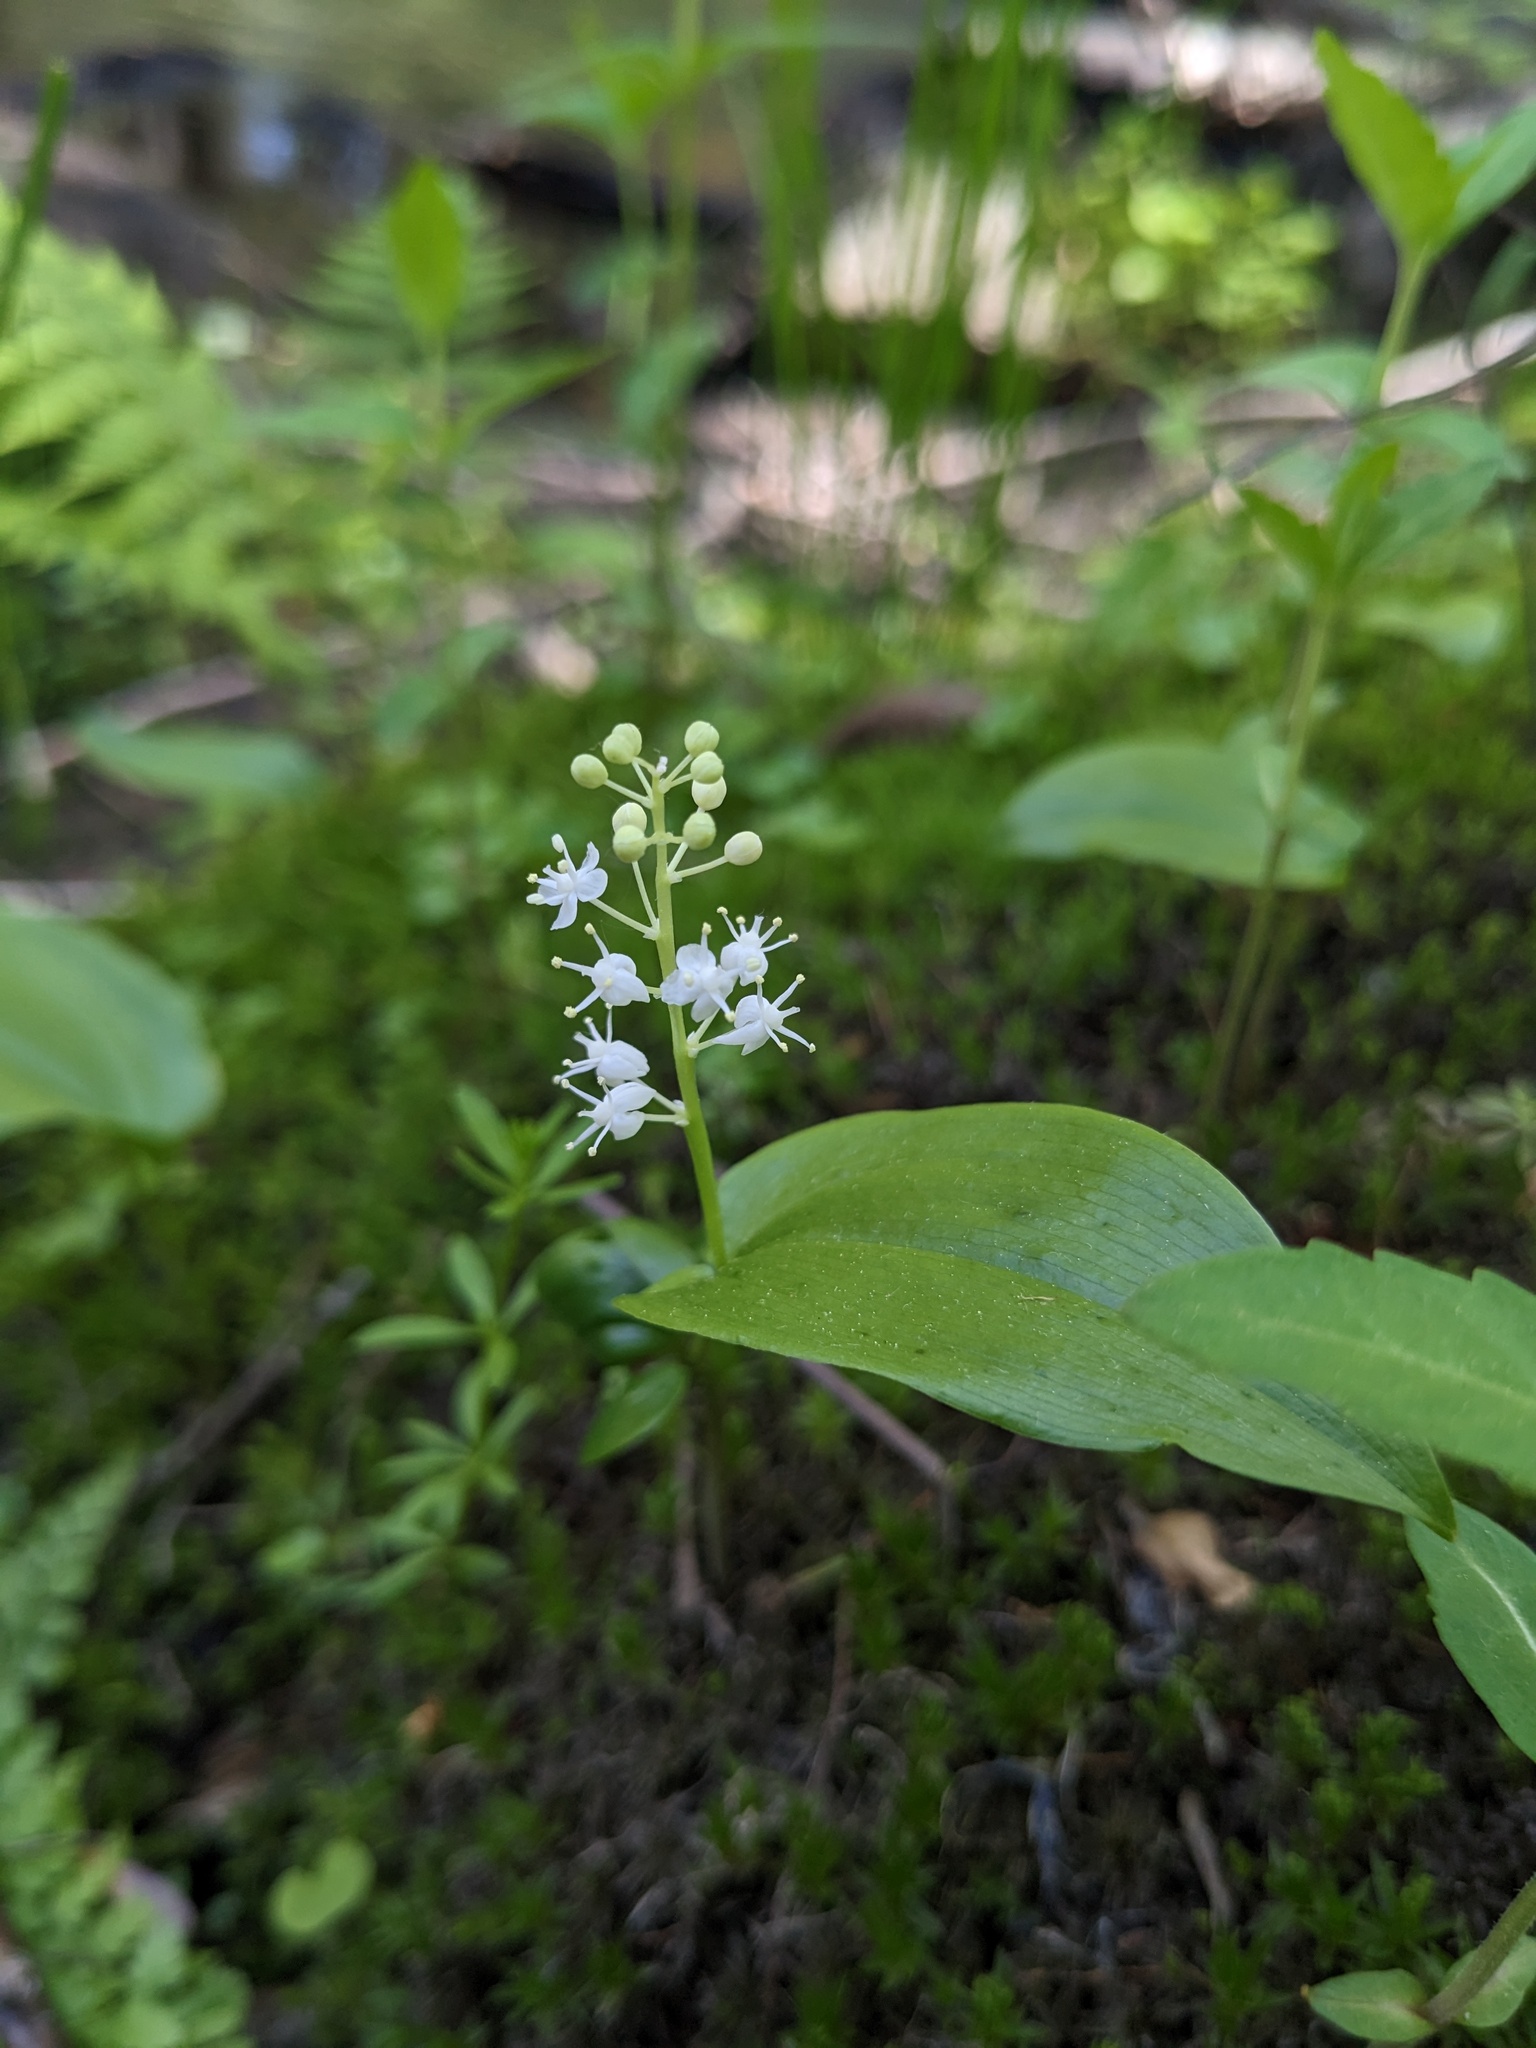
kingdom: Plantae
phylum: Tracheophyta
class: Liliopsida
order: Asparagales
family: Asparagaceae
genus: Maianthemum
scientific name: Maianthemum canadense
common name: False lily-of-the-valley
